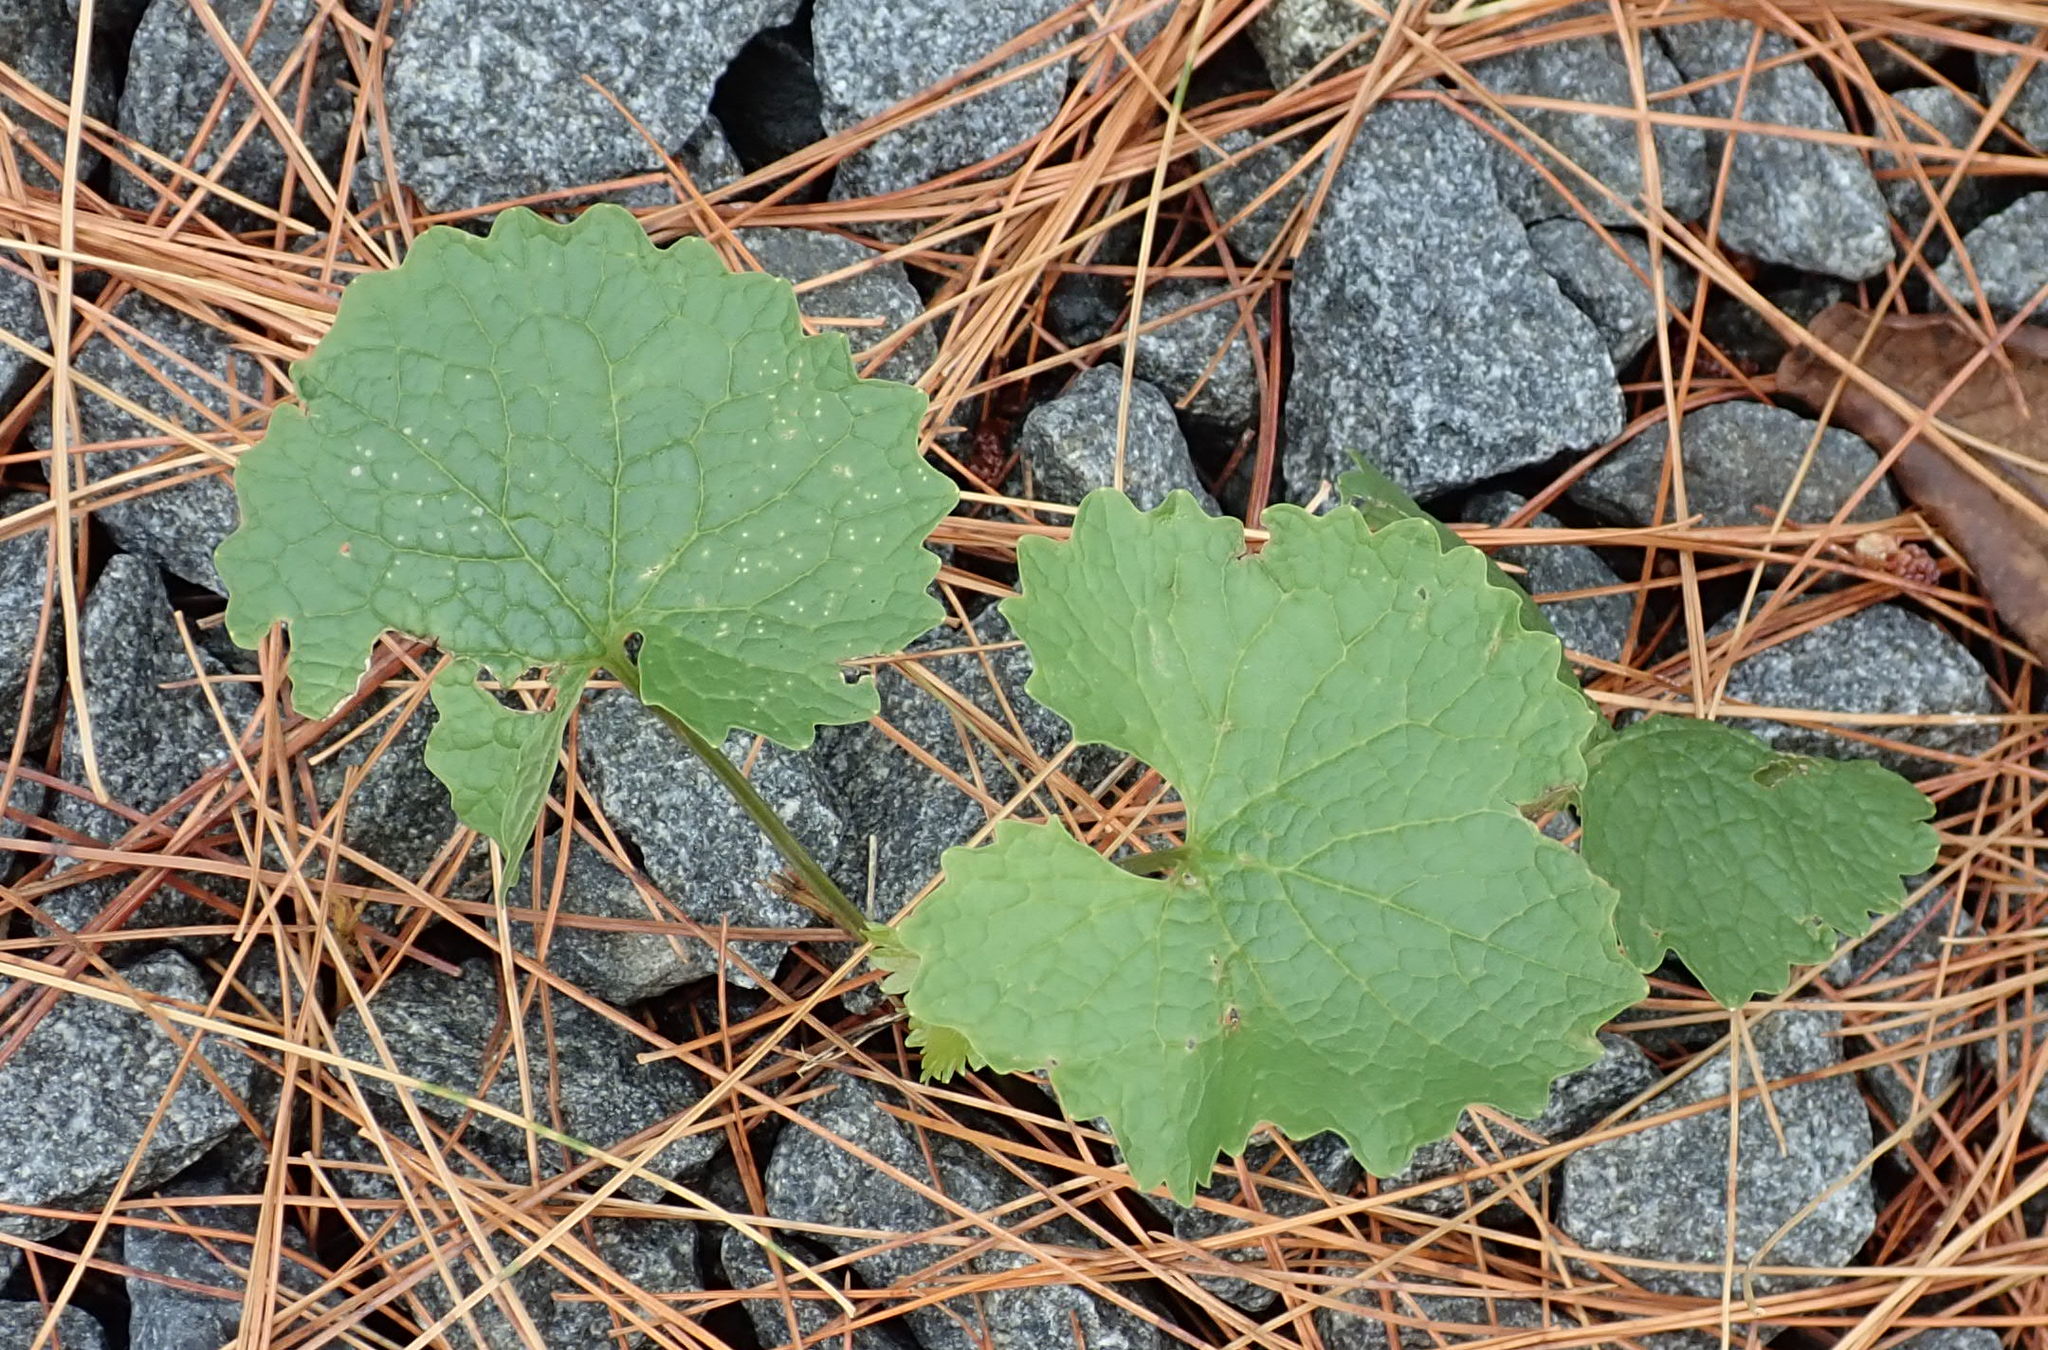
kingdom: Plantae
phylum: Tracheophyta
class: Magnoliopsida
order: Brassicales
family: Brassicaceae
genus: Alliaria
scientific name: Alliaria petiolata
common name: Garlic mustard
